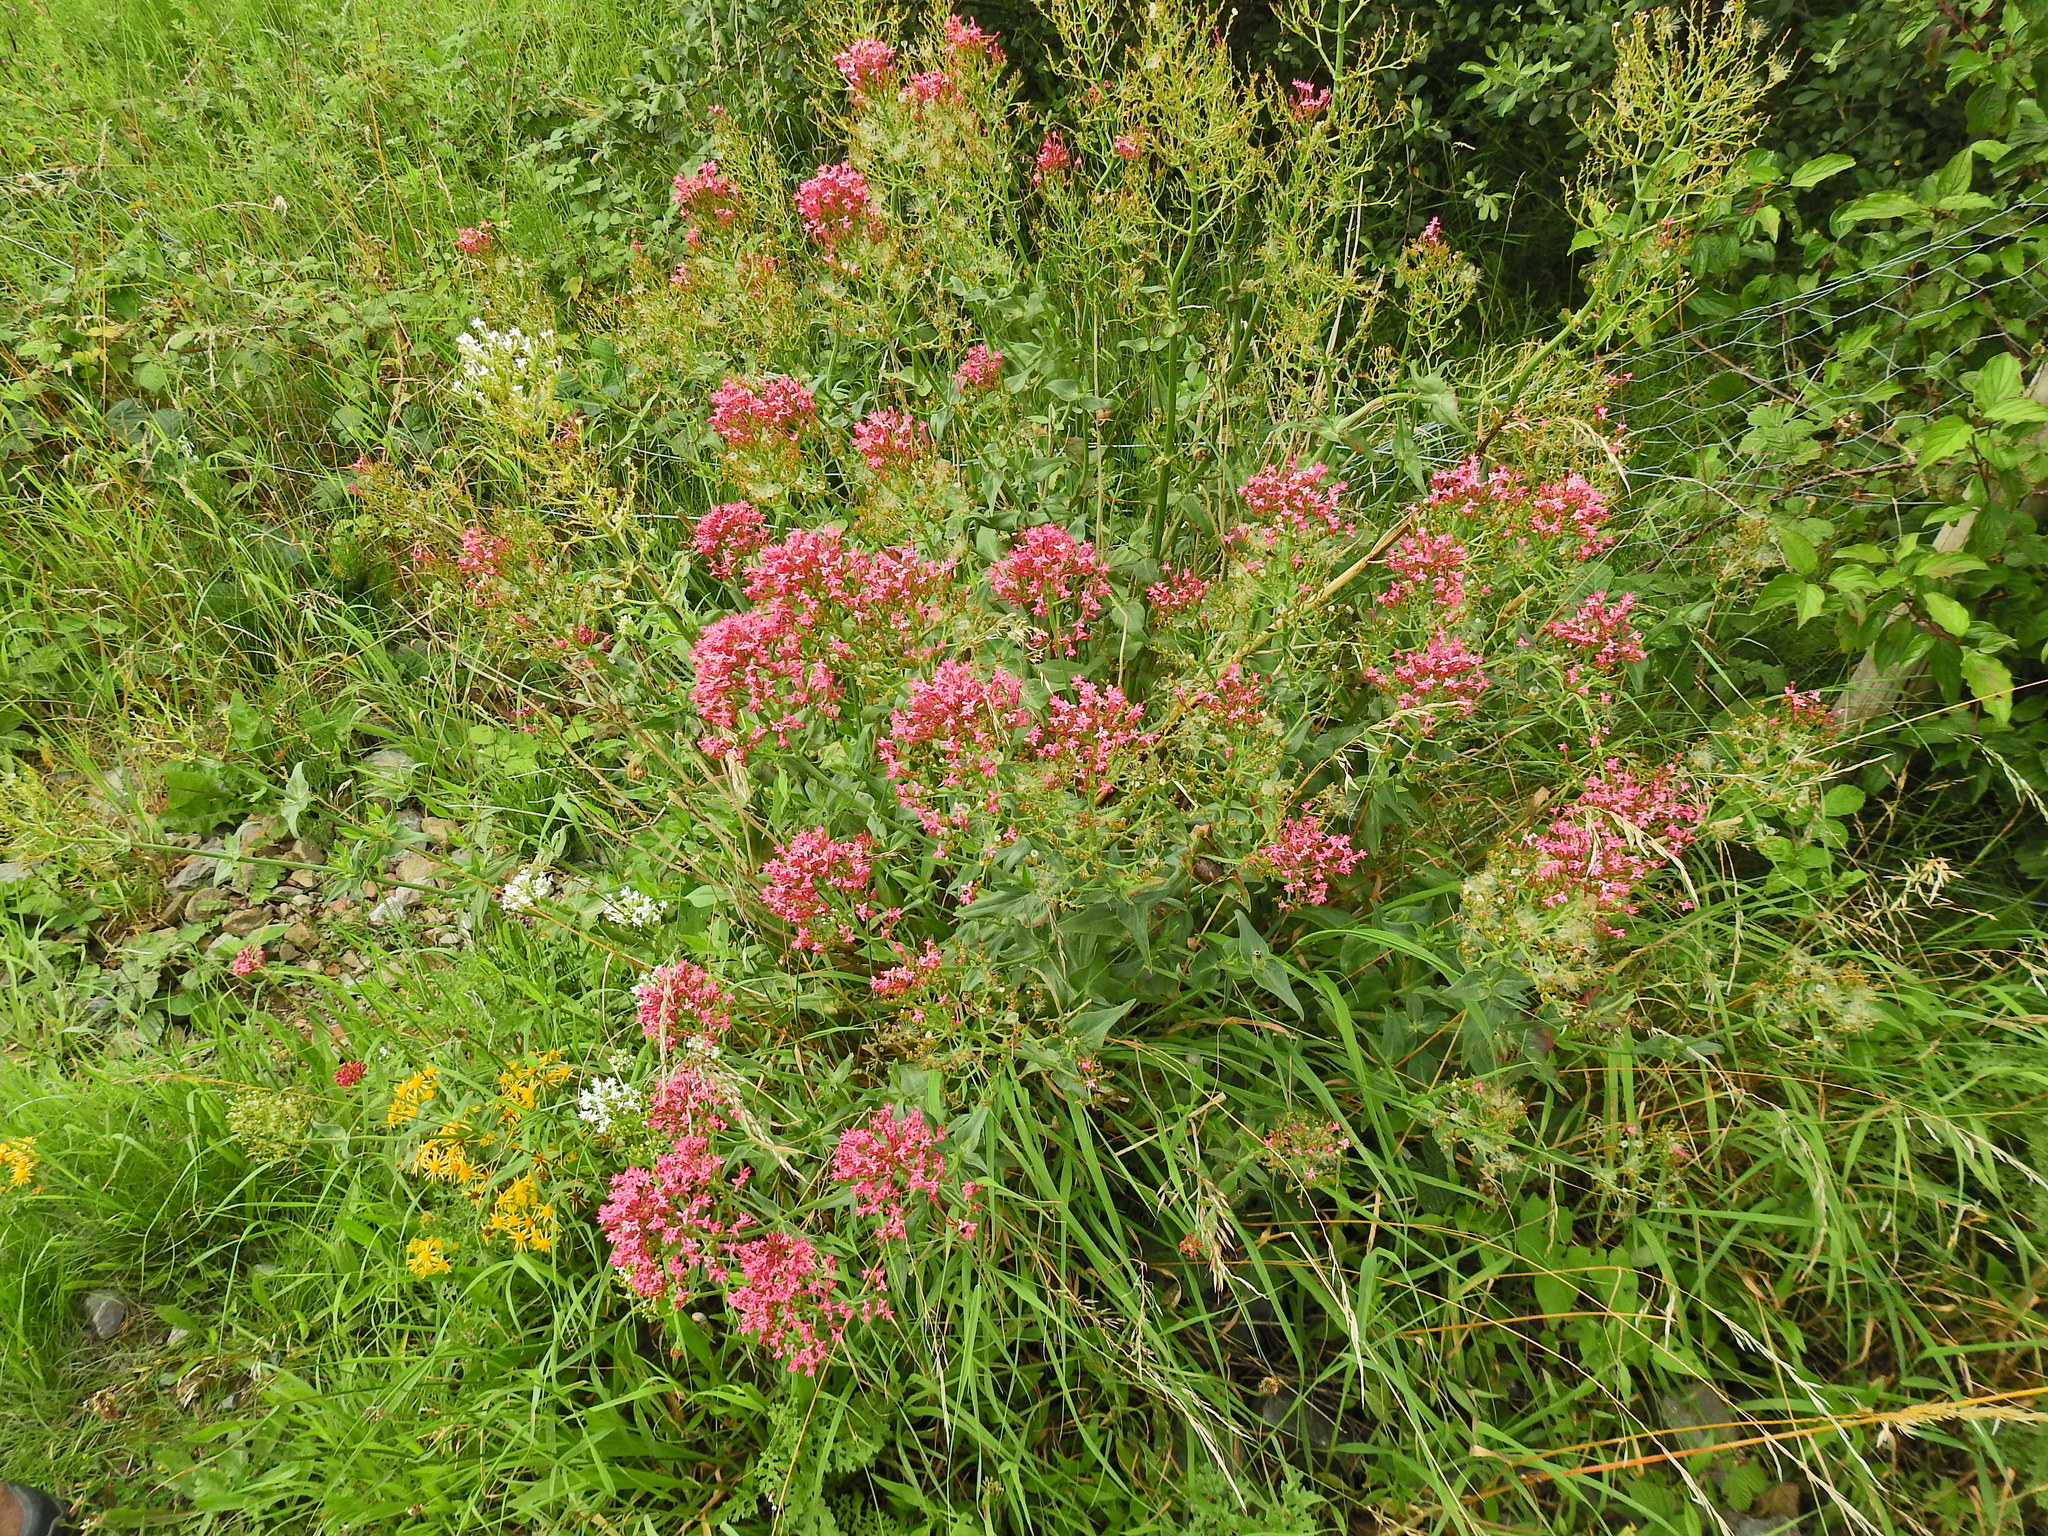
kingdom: Plantae
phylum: Tracheophyta
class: Magnoliopsida
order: Dipsacales
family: Caprifoliaceae
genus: Centranthus
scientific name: Centranthus ruber
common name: Red valerian
